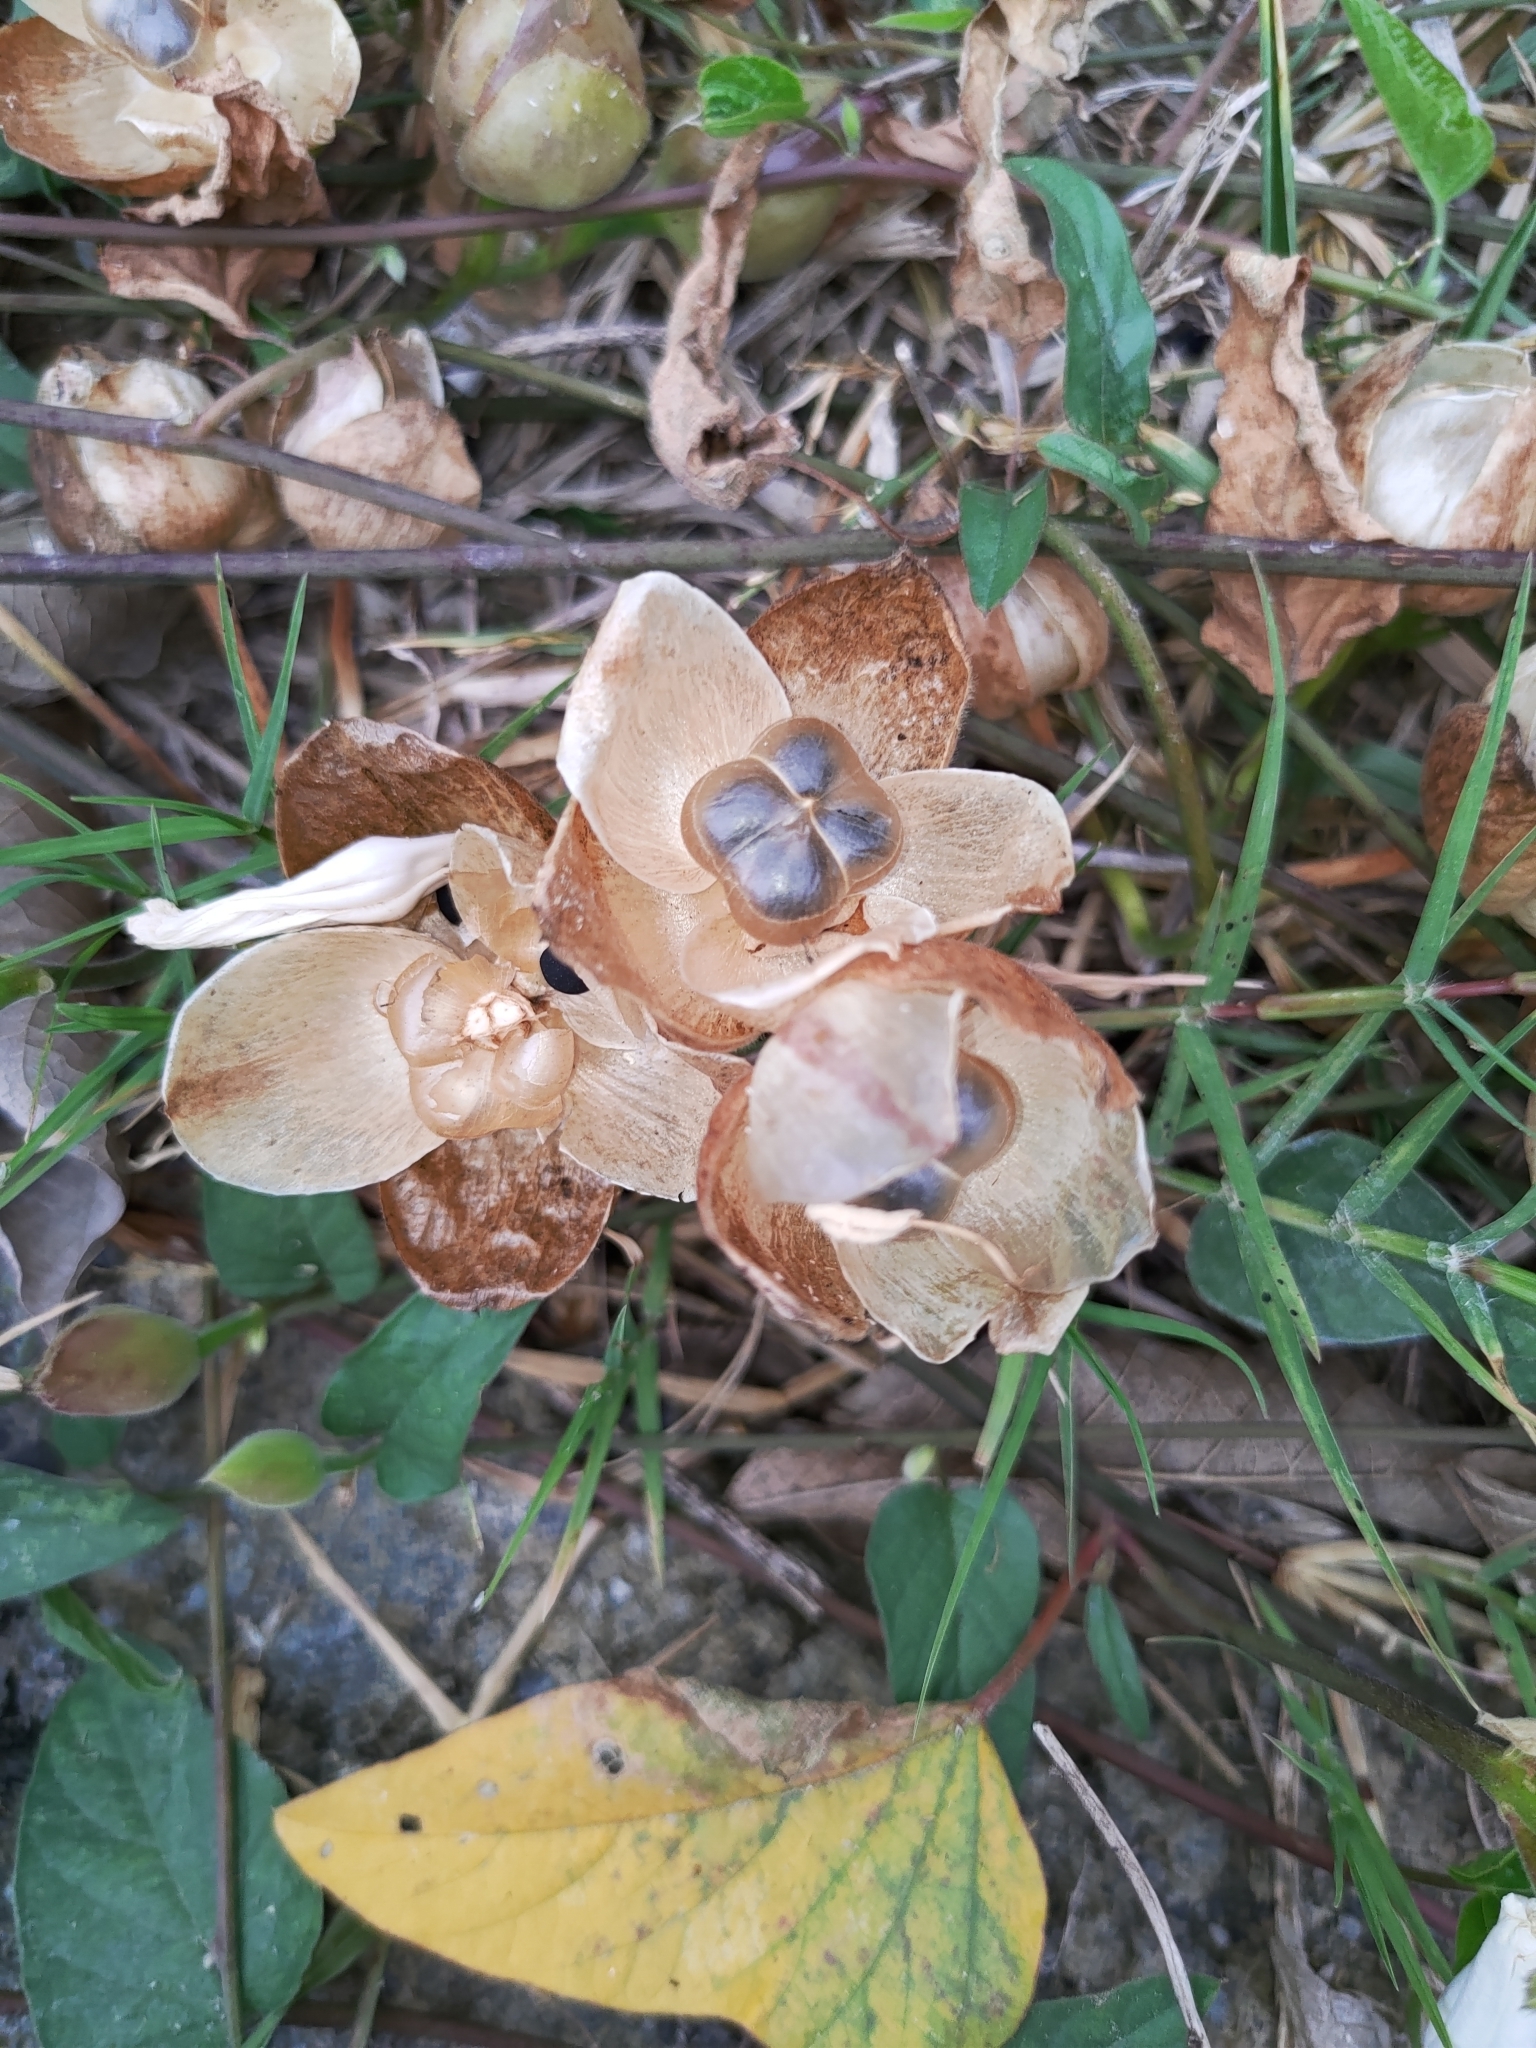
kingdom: Plantae
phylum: Tracheophyta
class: Magnoliopsida
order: Solanales
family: Convolvulaceae
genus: Operculina
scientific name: Operculina turpethum
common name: Transparent wood-rose
